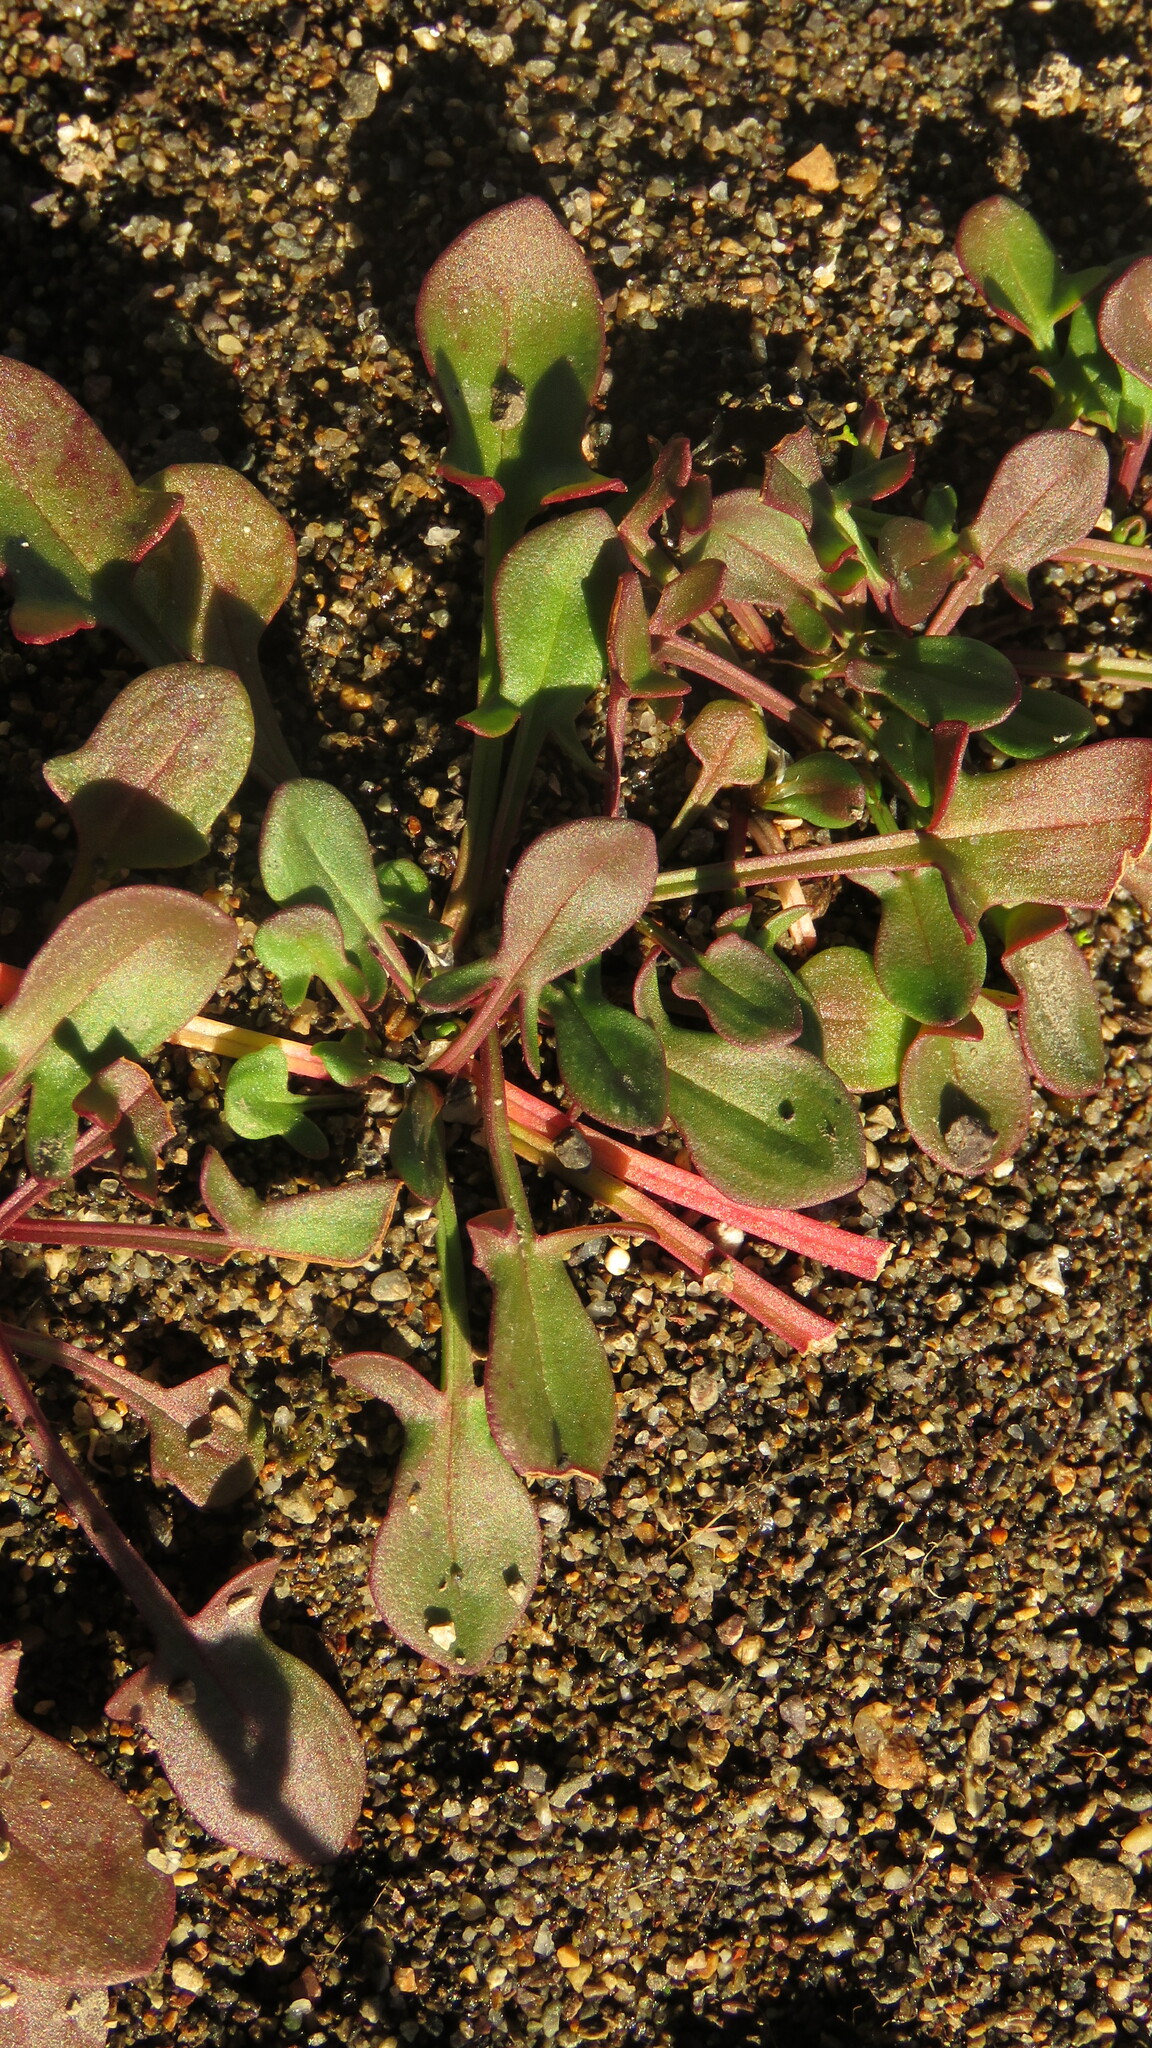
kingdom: Plantae
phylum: Tracheophyta
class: Magnoliopsida
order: Caryophyllales
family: Polygonaceae
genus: Rumex
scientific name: Rumex acetosella
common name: Common sheep sorrel
